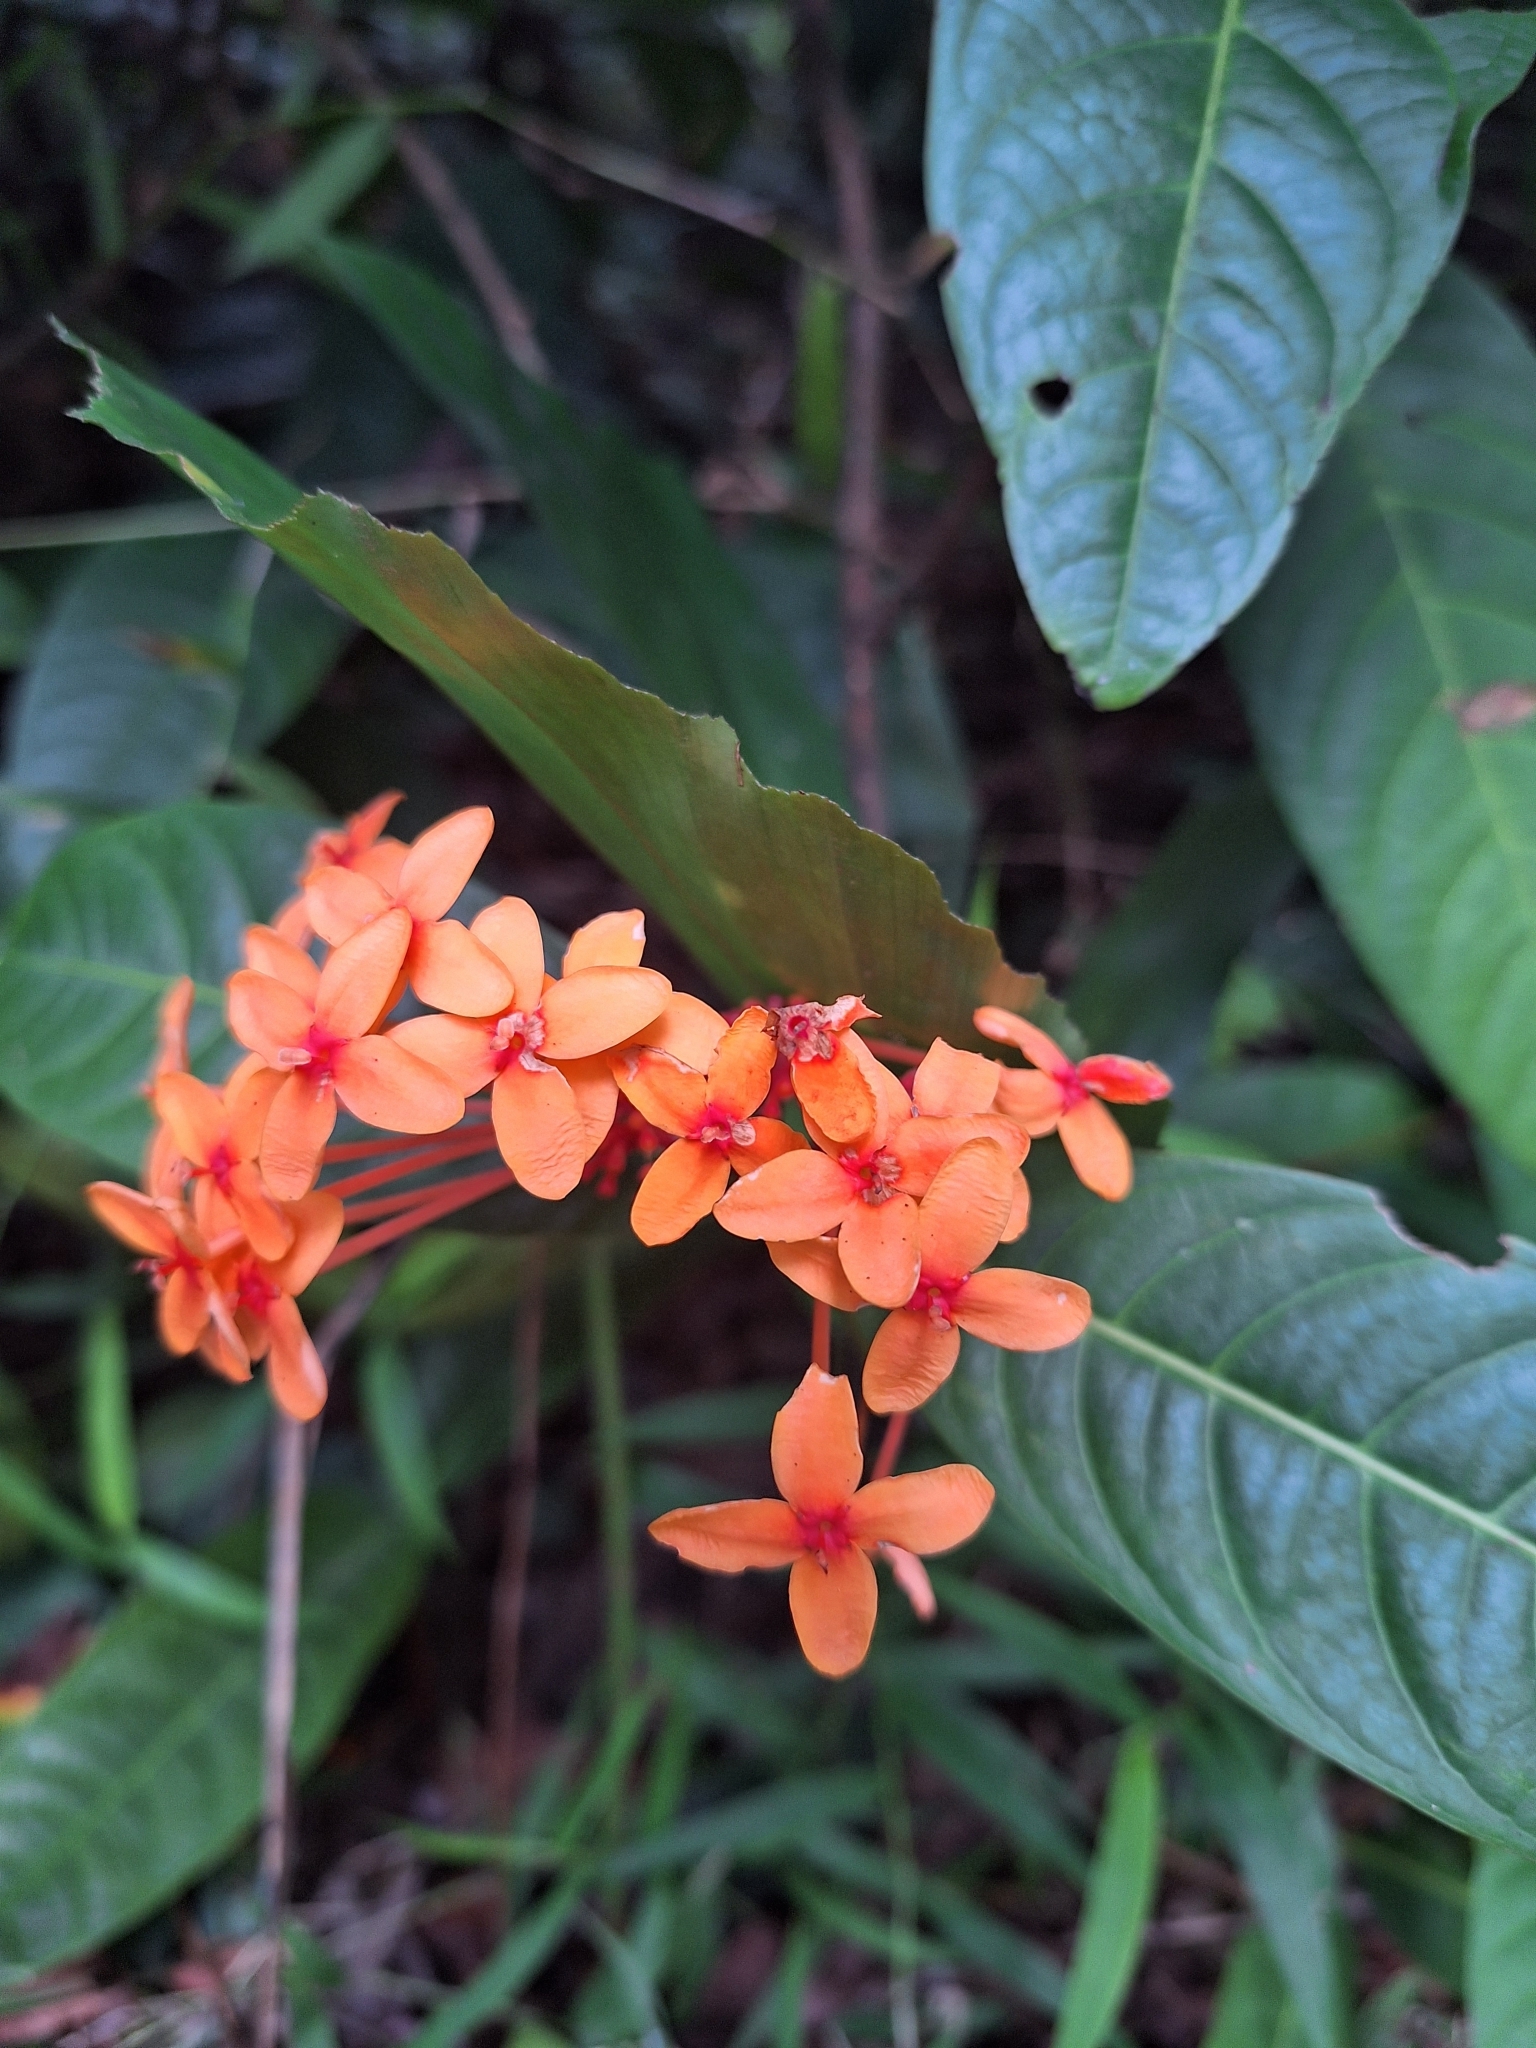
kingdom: Plantae
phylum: Tracheophyta
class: Magnoliopsida
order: Gentianales
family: Rubiaceae
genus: Ixora
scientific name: Ixora congesta
